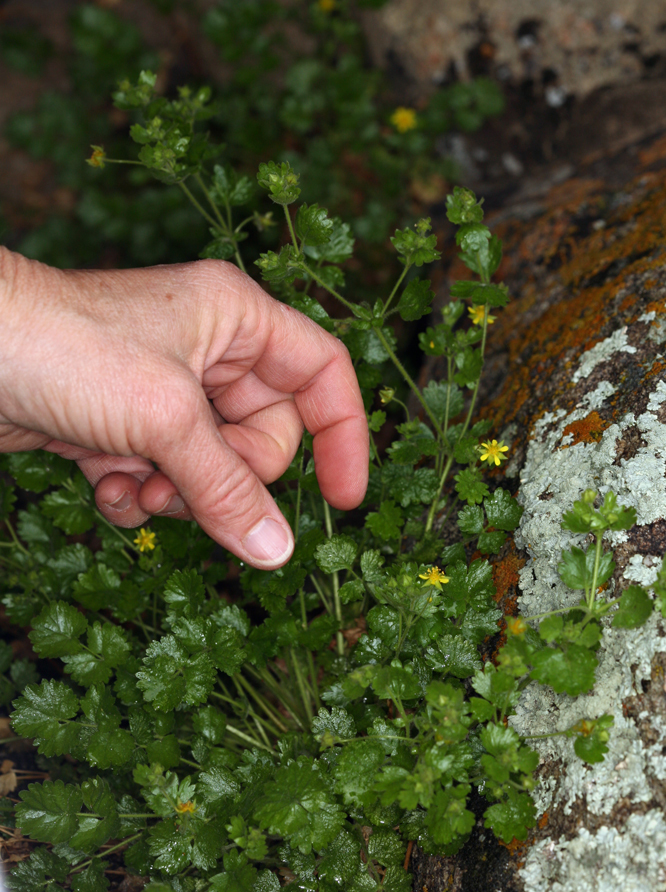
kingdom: Plantae
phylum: Tracheophyta
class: Magnoliopsida
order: Rosales
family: Rosaceae
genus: Potentilla
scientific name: Potentilla saxosa
